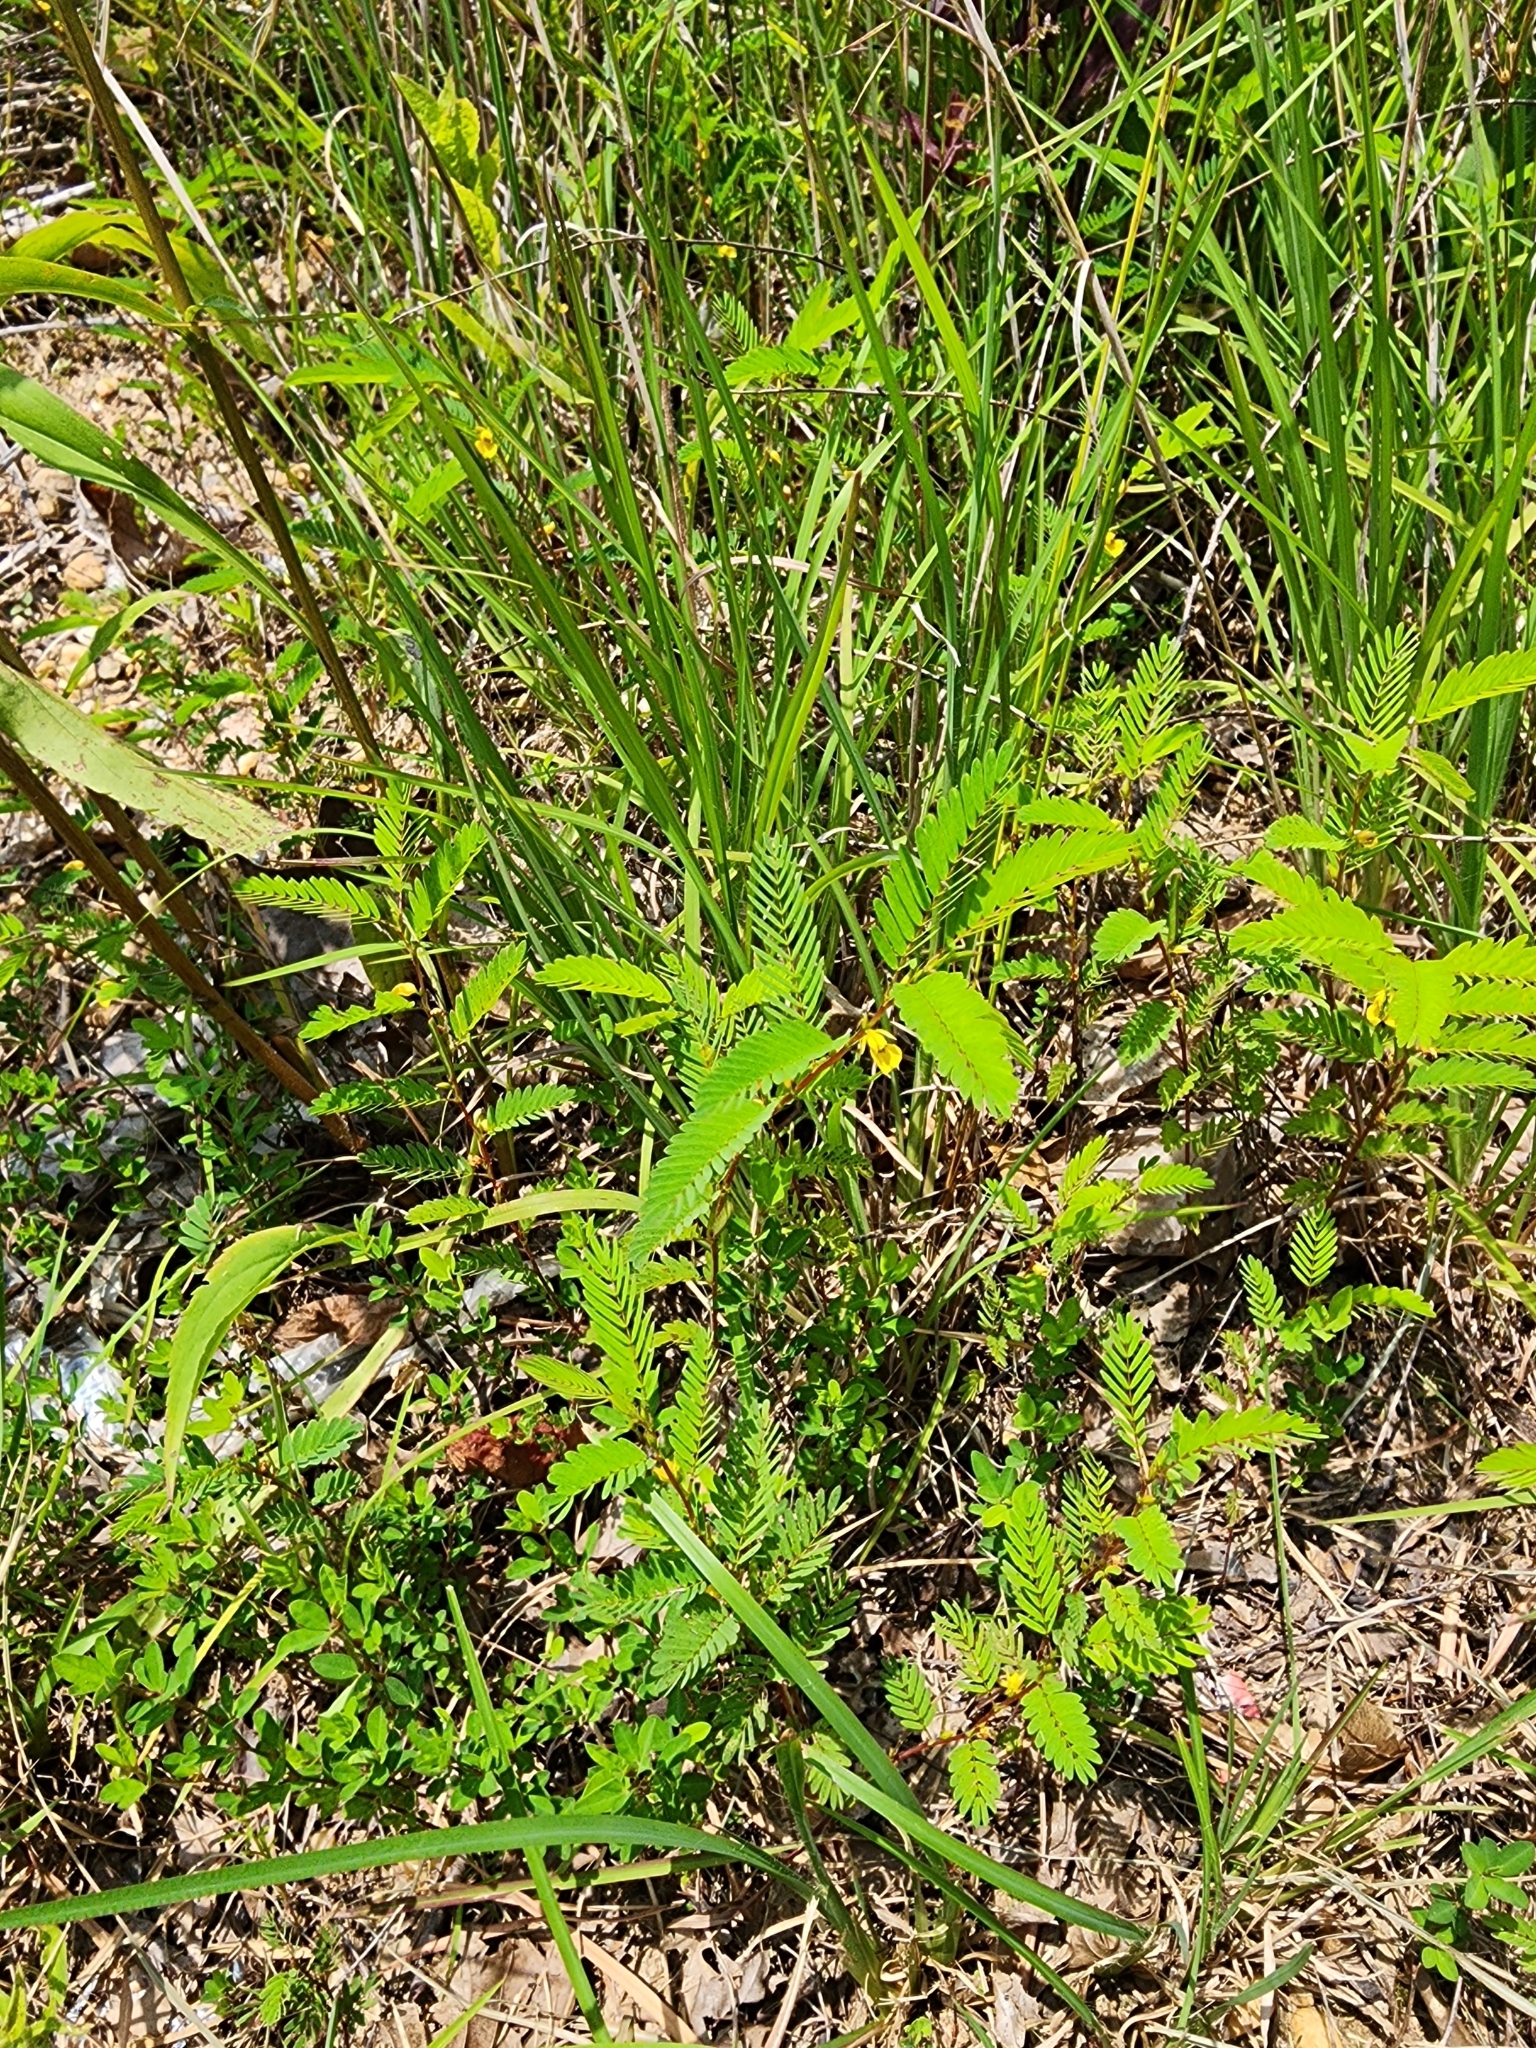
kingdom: Plantae
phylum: Tracheophyta
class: Magnoliopsida
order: Fabales
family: Fabaceae
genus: Chamaecrista
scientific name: Chamaecrista nictitans
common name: Sensitive cassia
